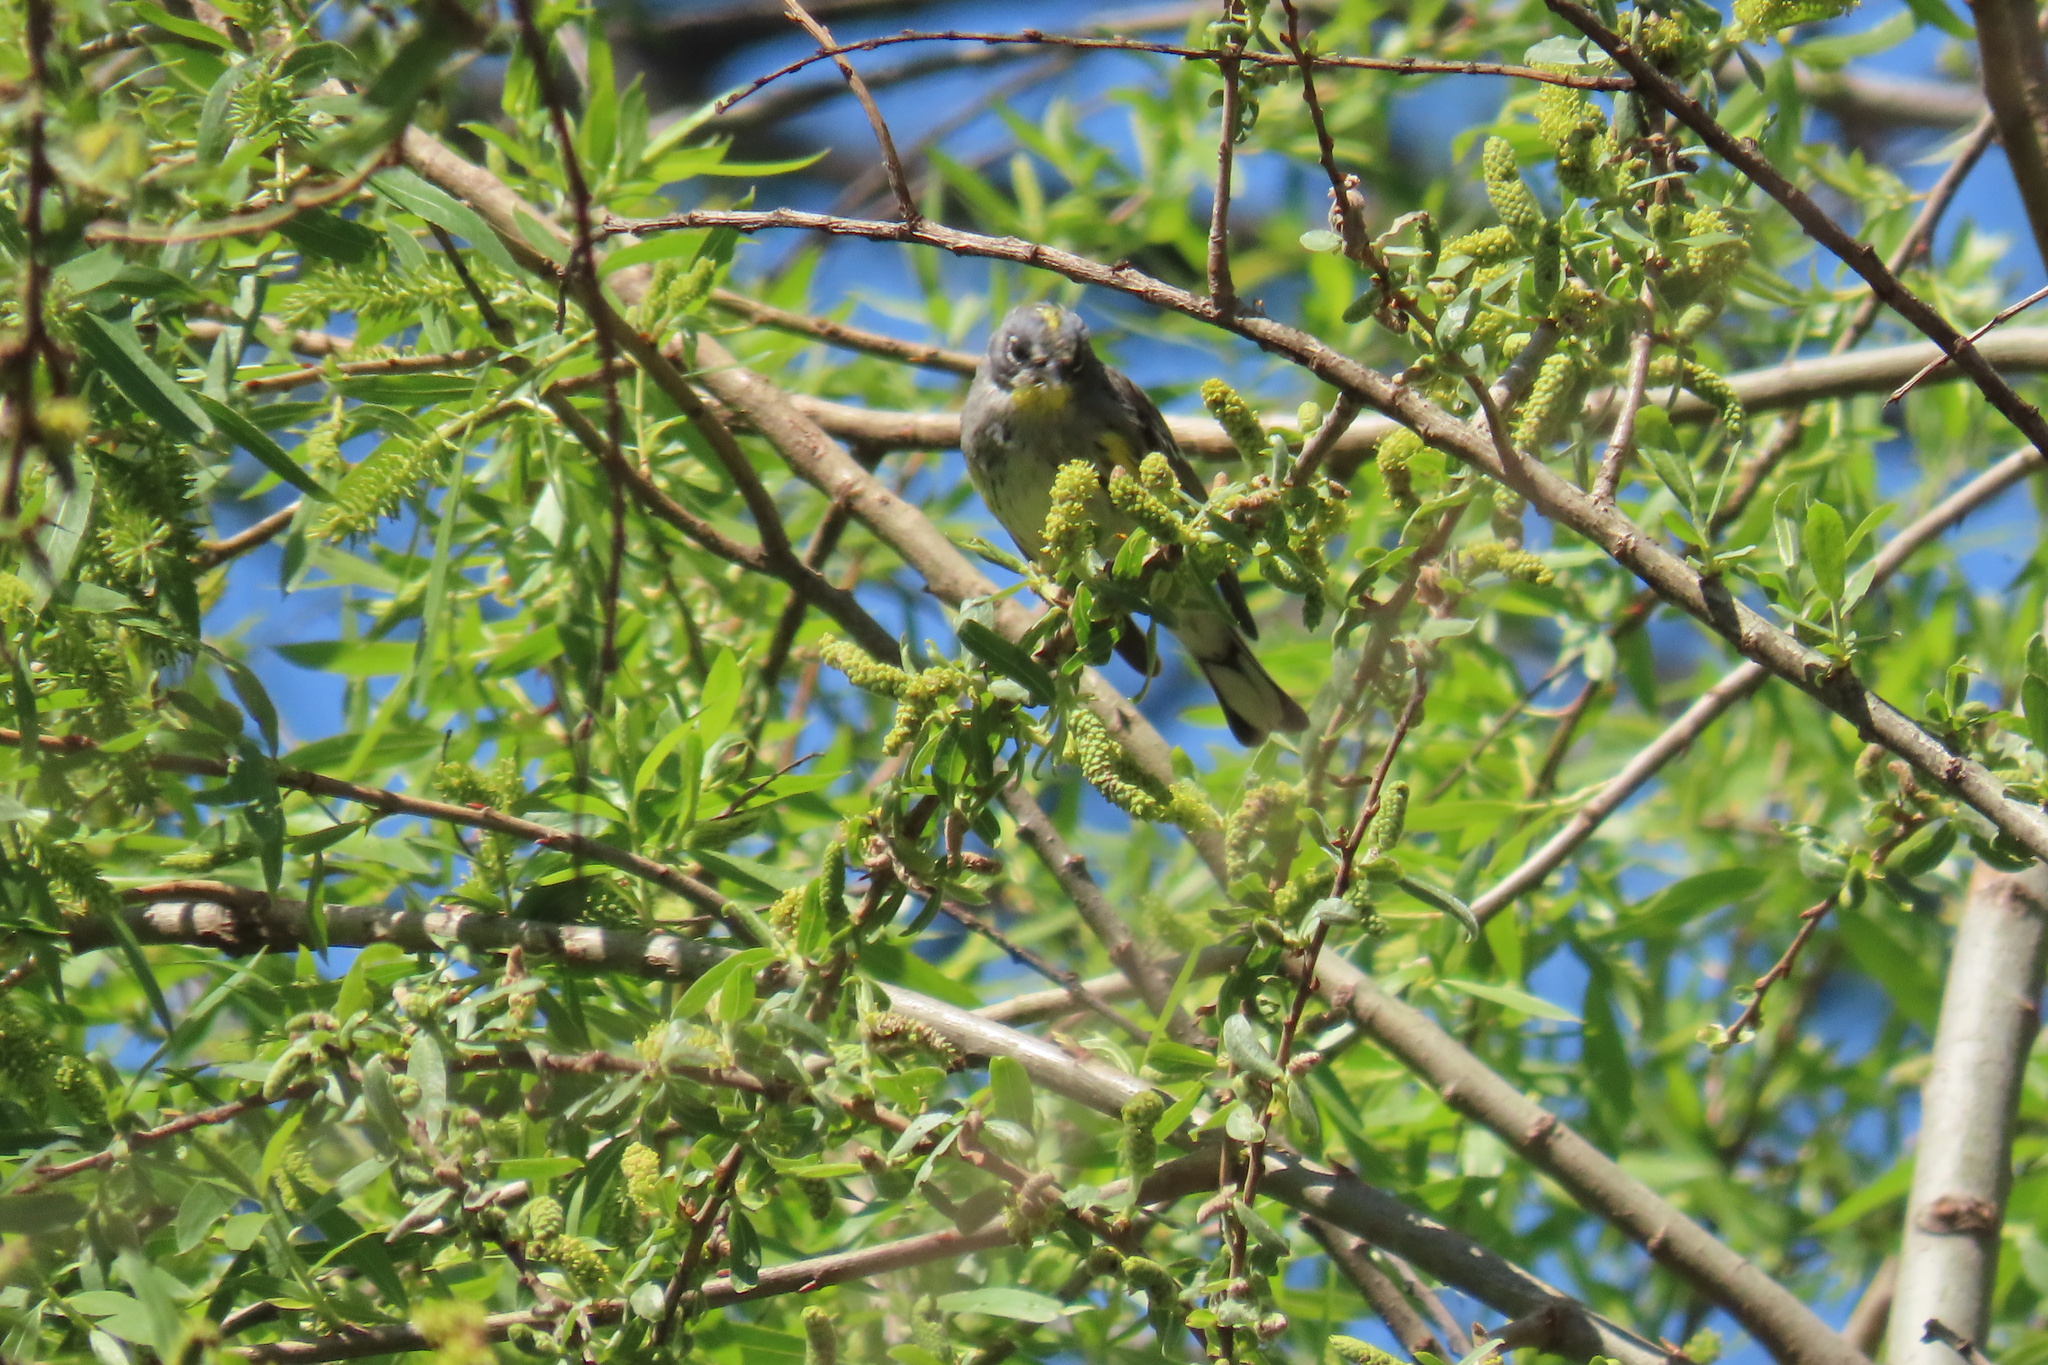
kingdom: Animalia
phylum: Chordata
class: Aves
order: Passeriformes
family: Parulidae
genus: Setophaga
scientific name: Setophaga coronata
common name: Myrtle warbler
